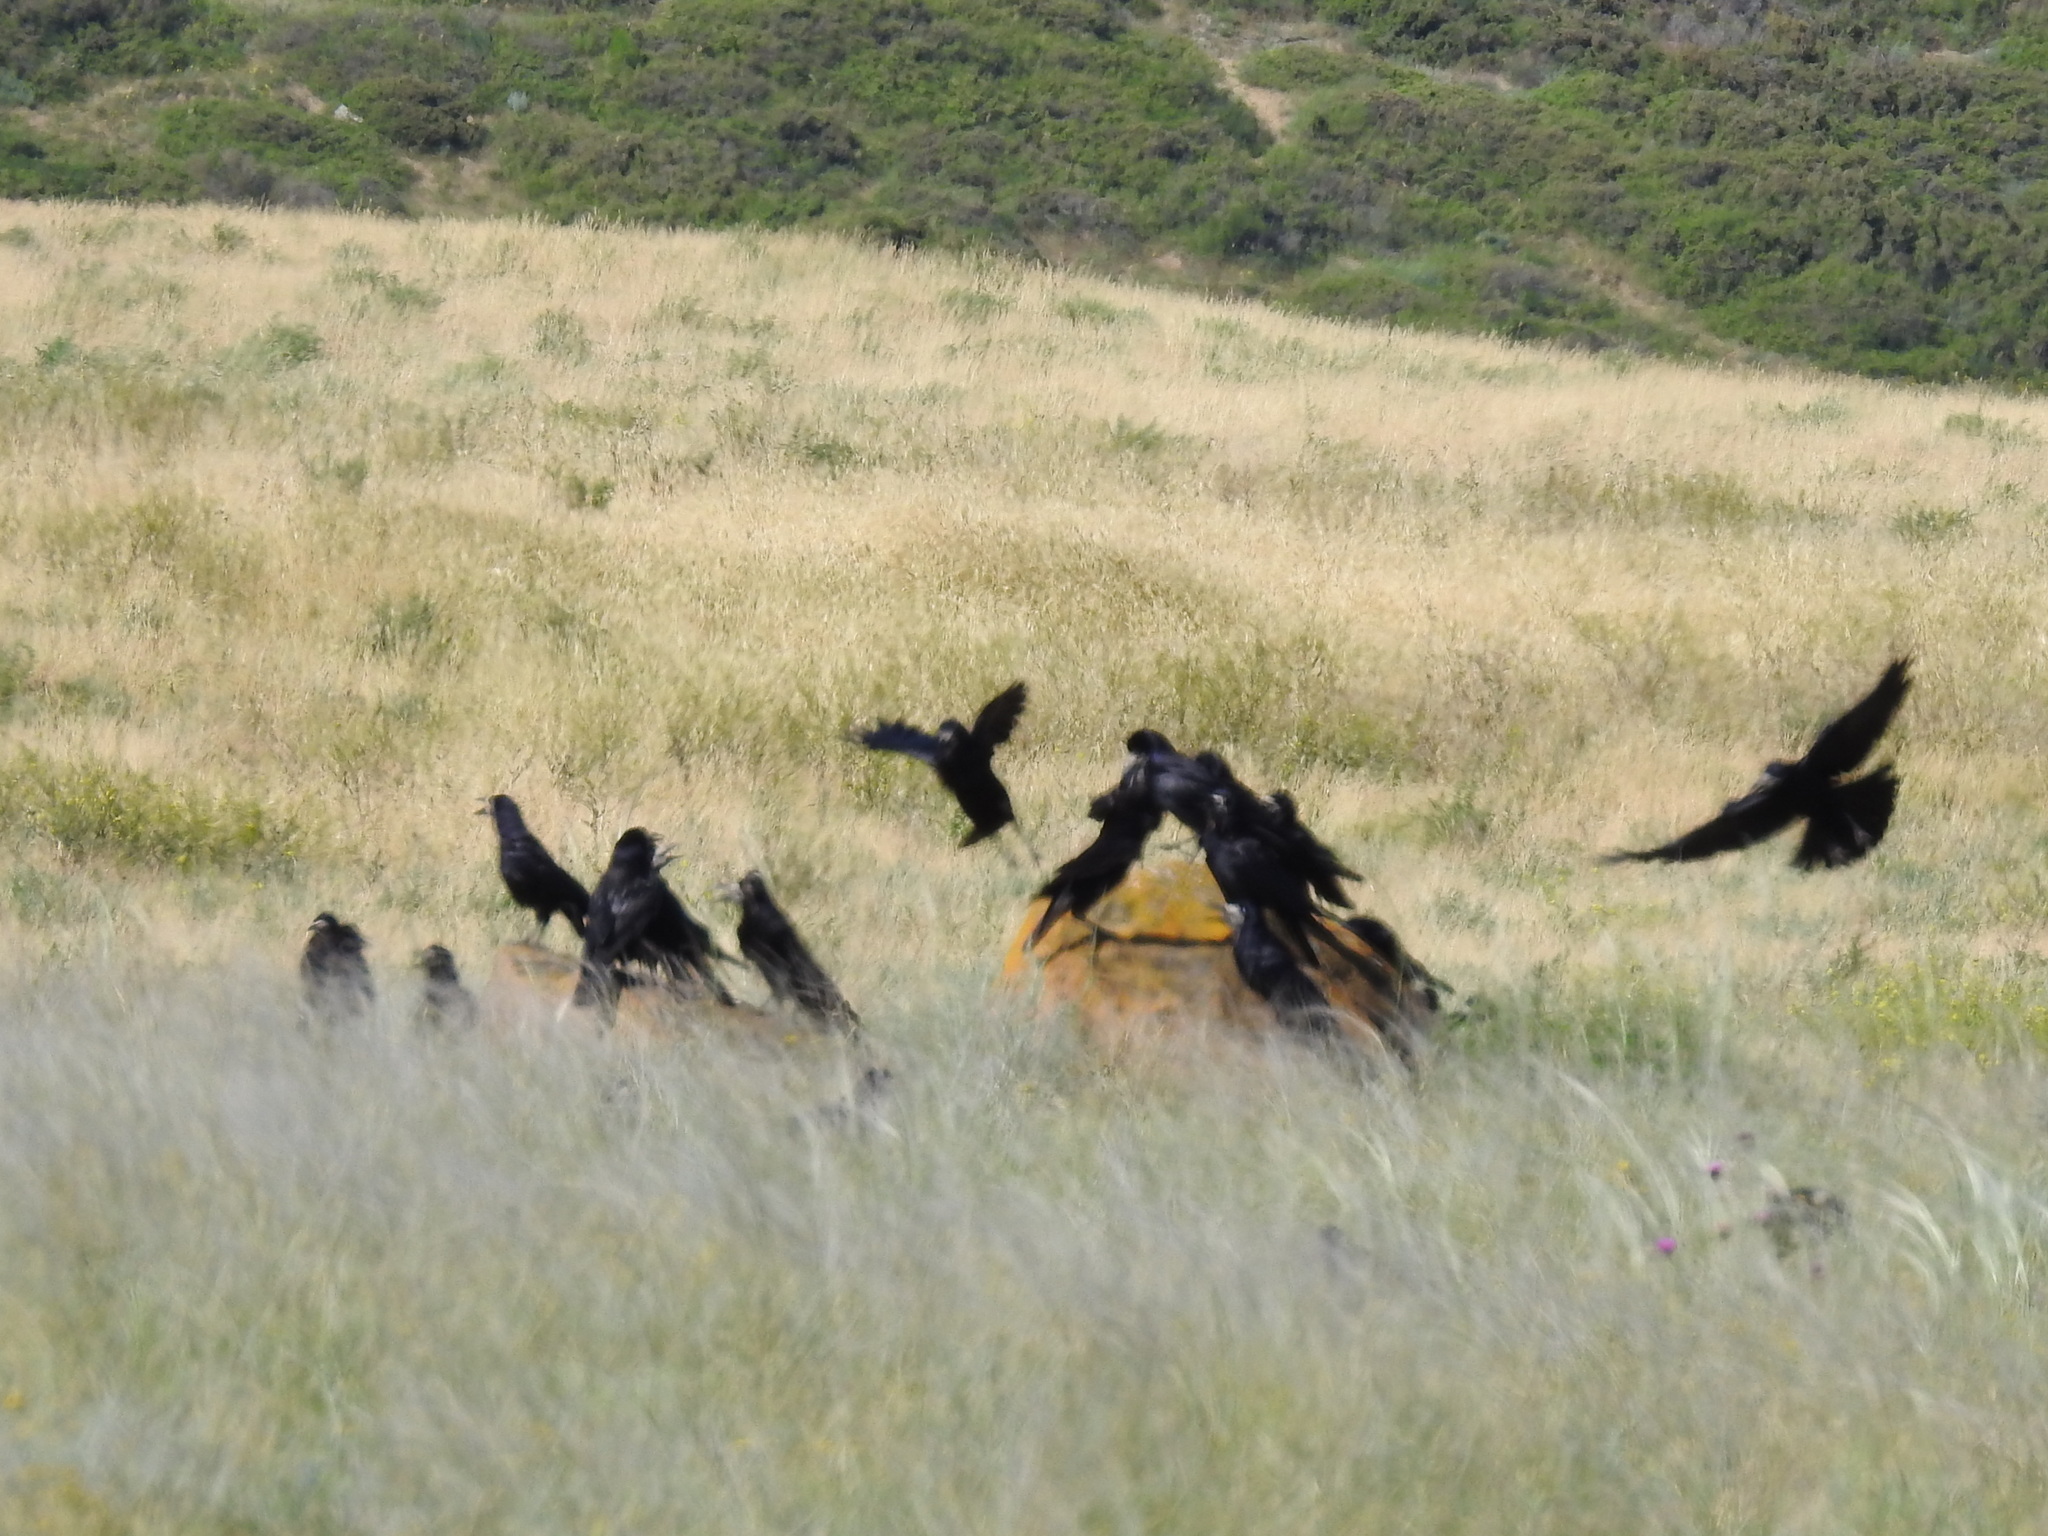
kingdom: Animalia
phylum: Chordata
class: Aves
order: Passeriformes
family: Corvidae
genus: Corvus
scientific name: Corvus frugilegus
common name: Rook
